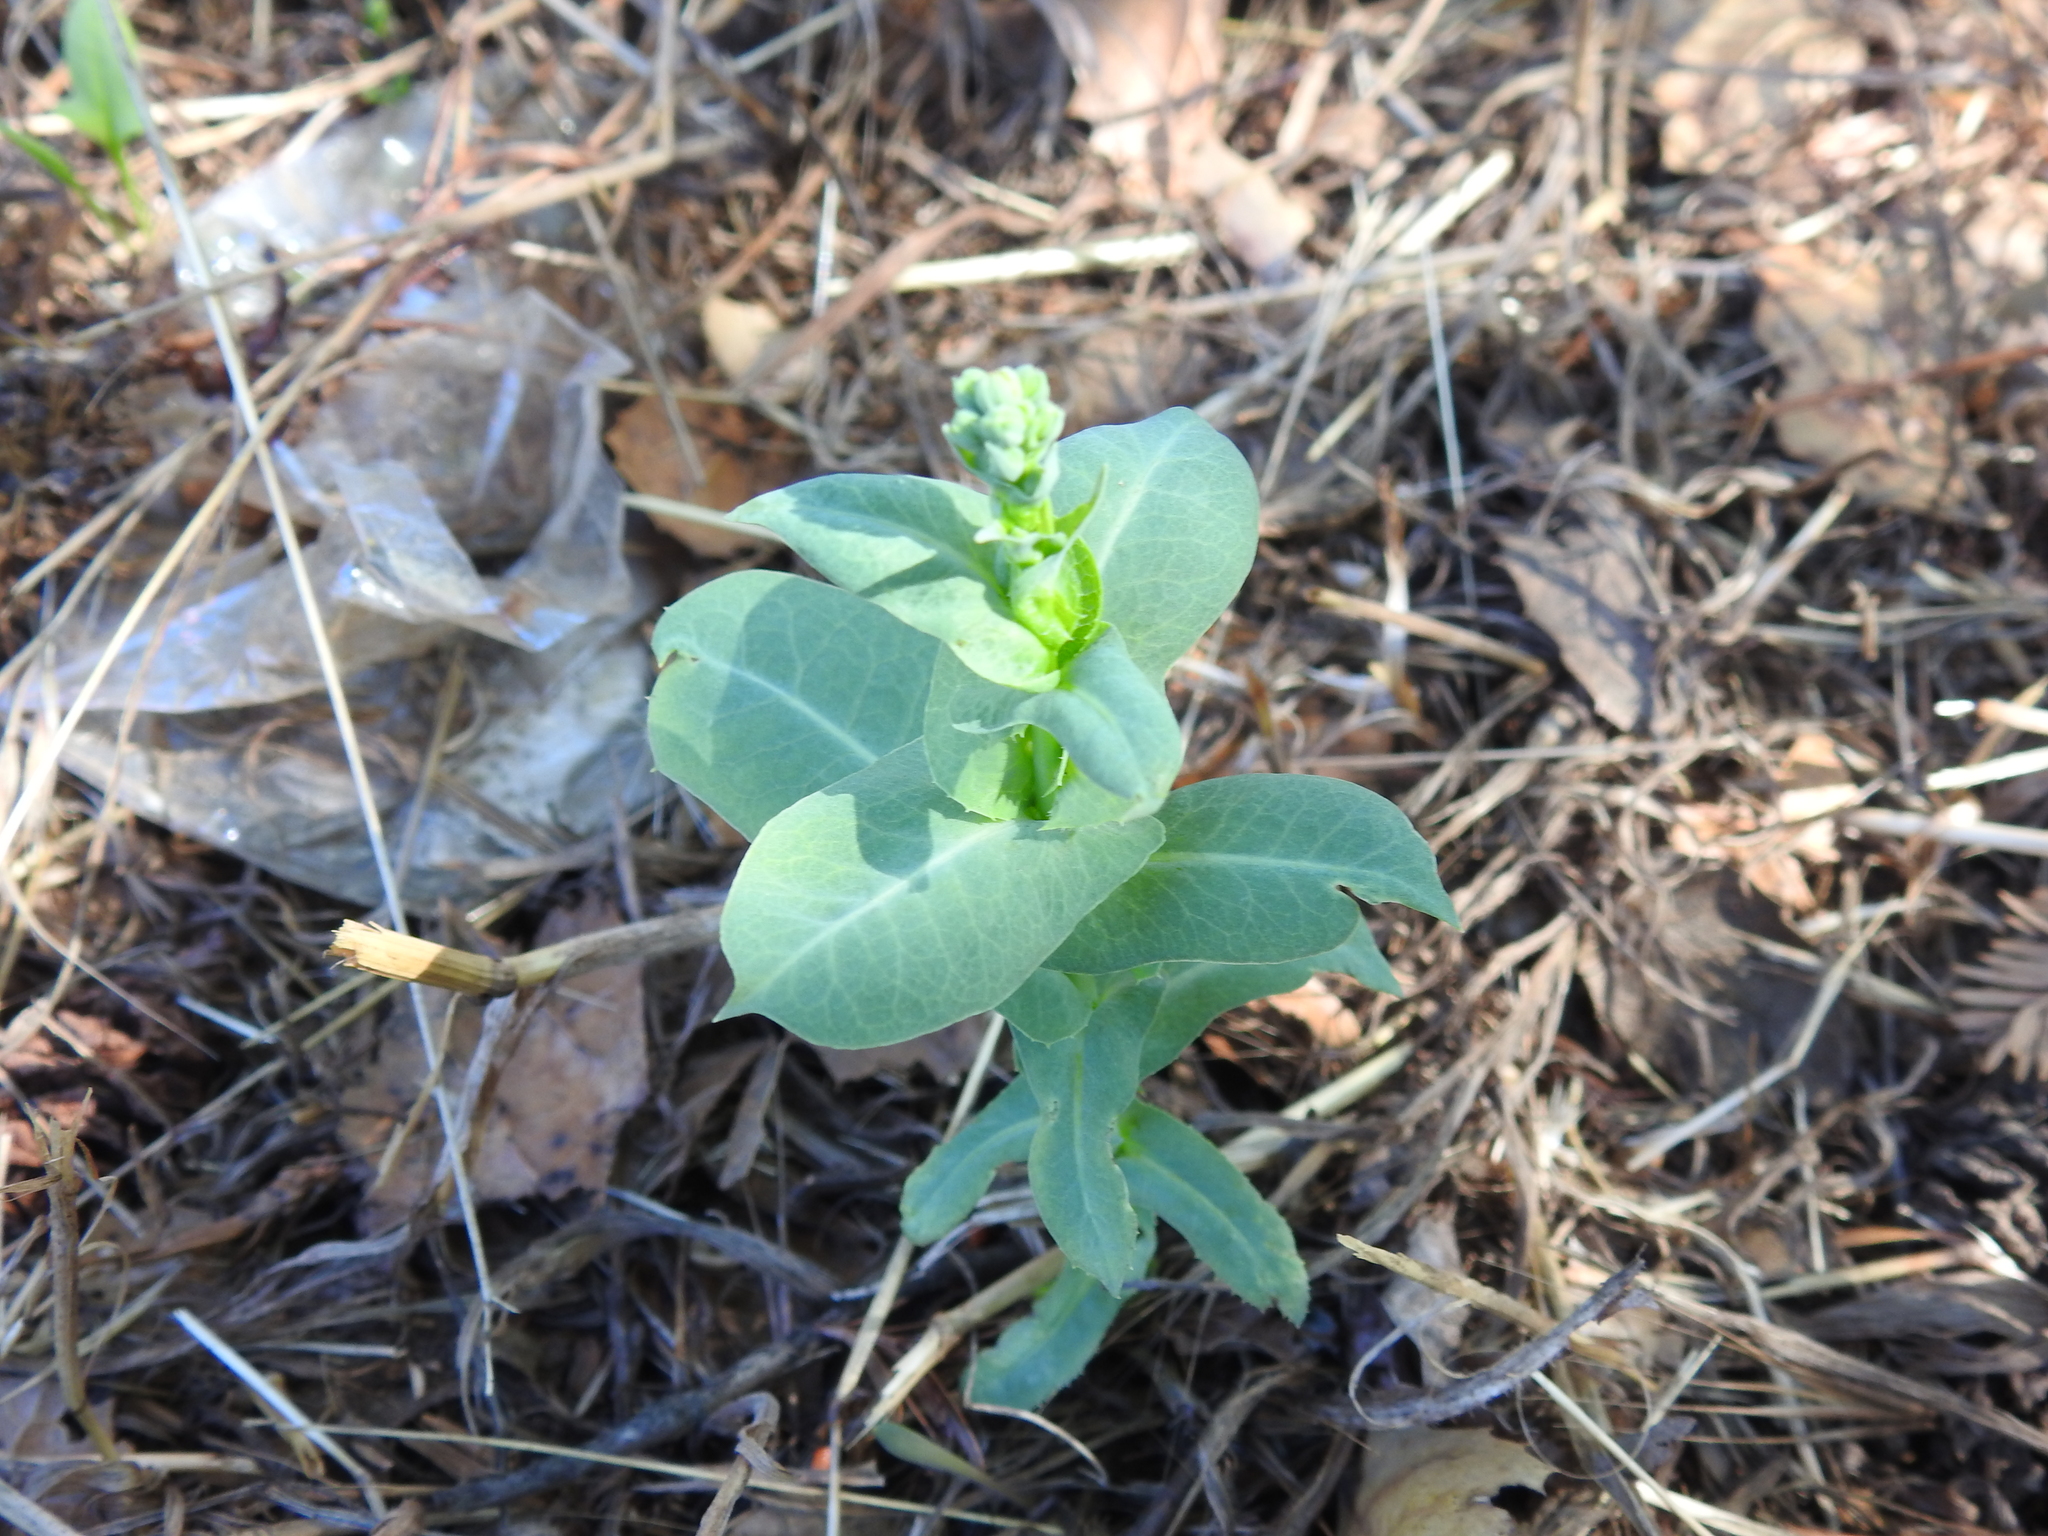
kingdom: Plantae
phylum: Tracheophyta
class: Magnoliopsida
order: Myrtales
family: Myrtaceae
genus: Eucalyptus
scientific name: Eucalyptus globulus
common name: Southern blue-gum
